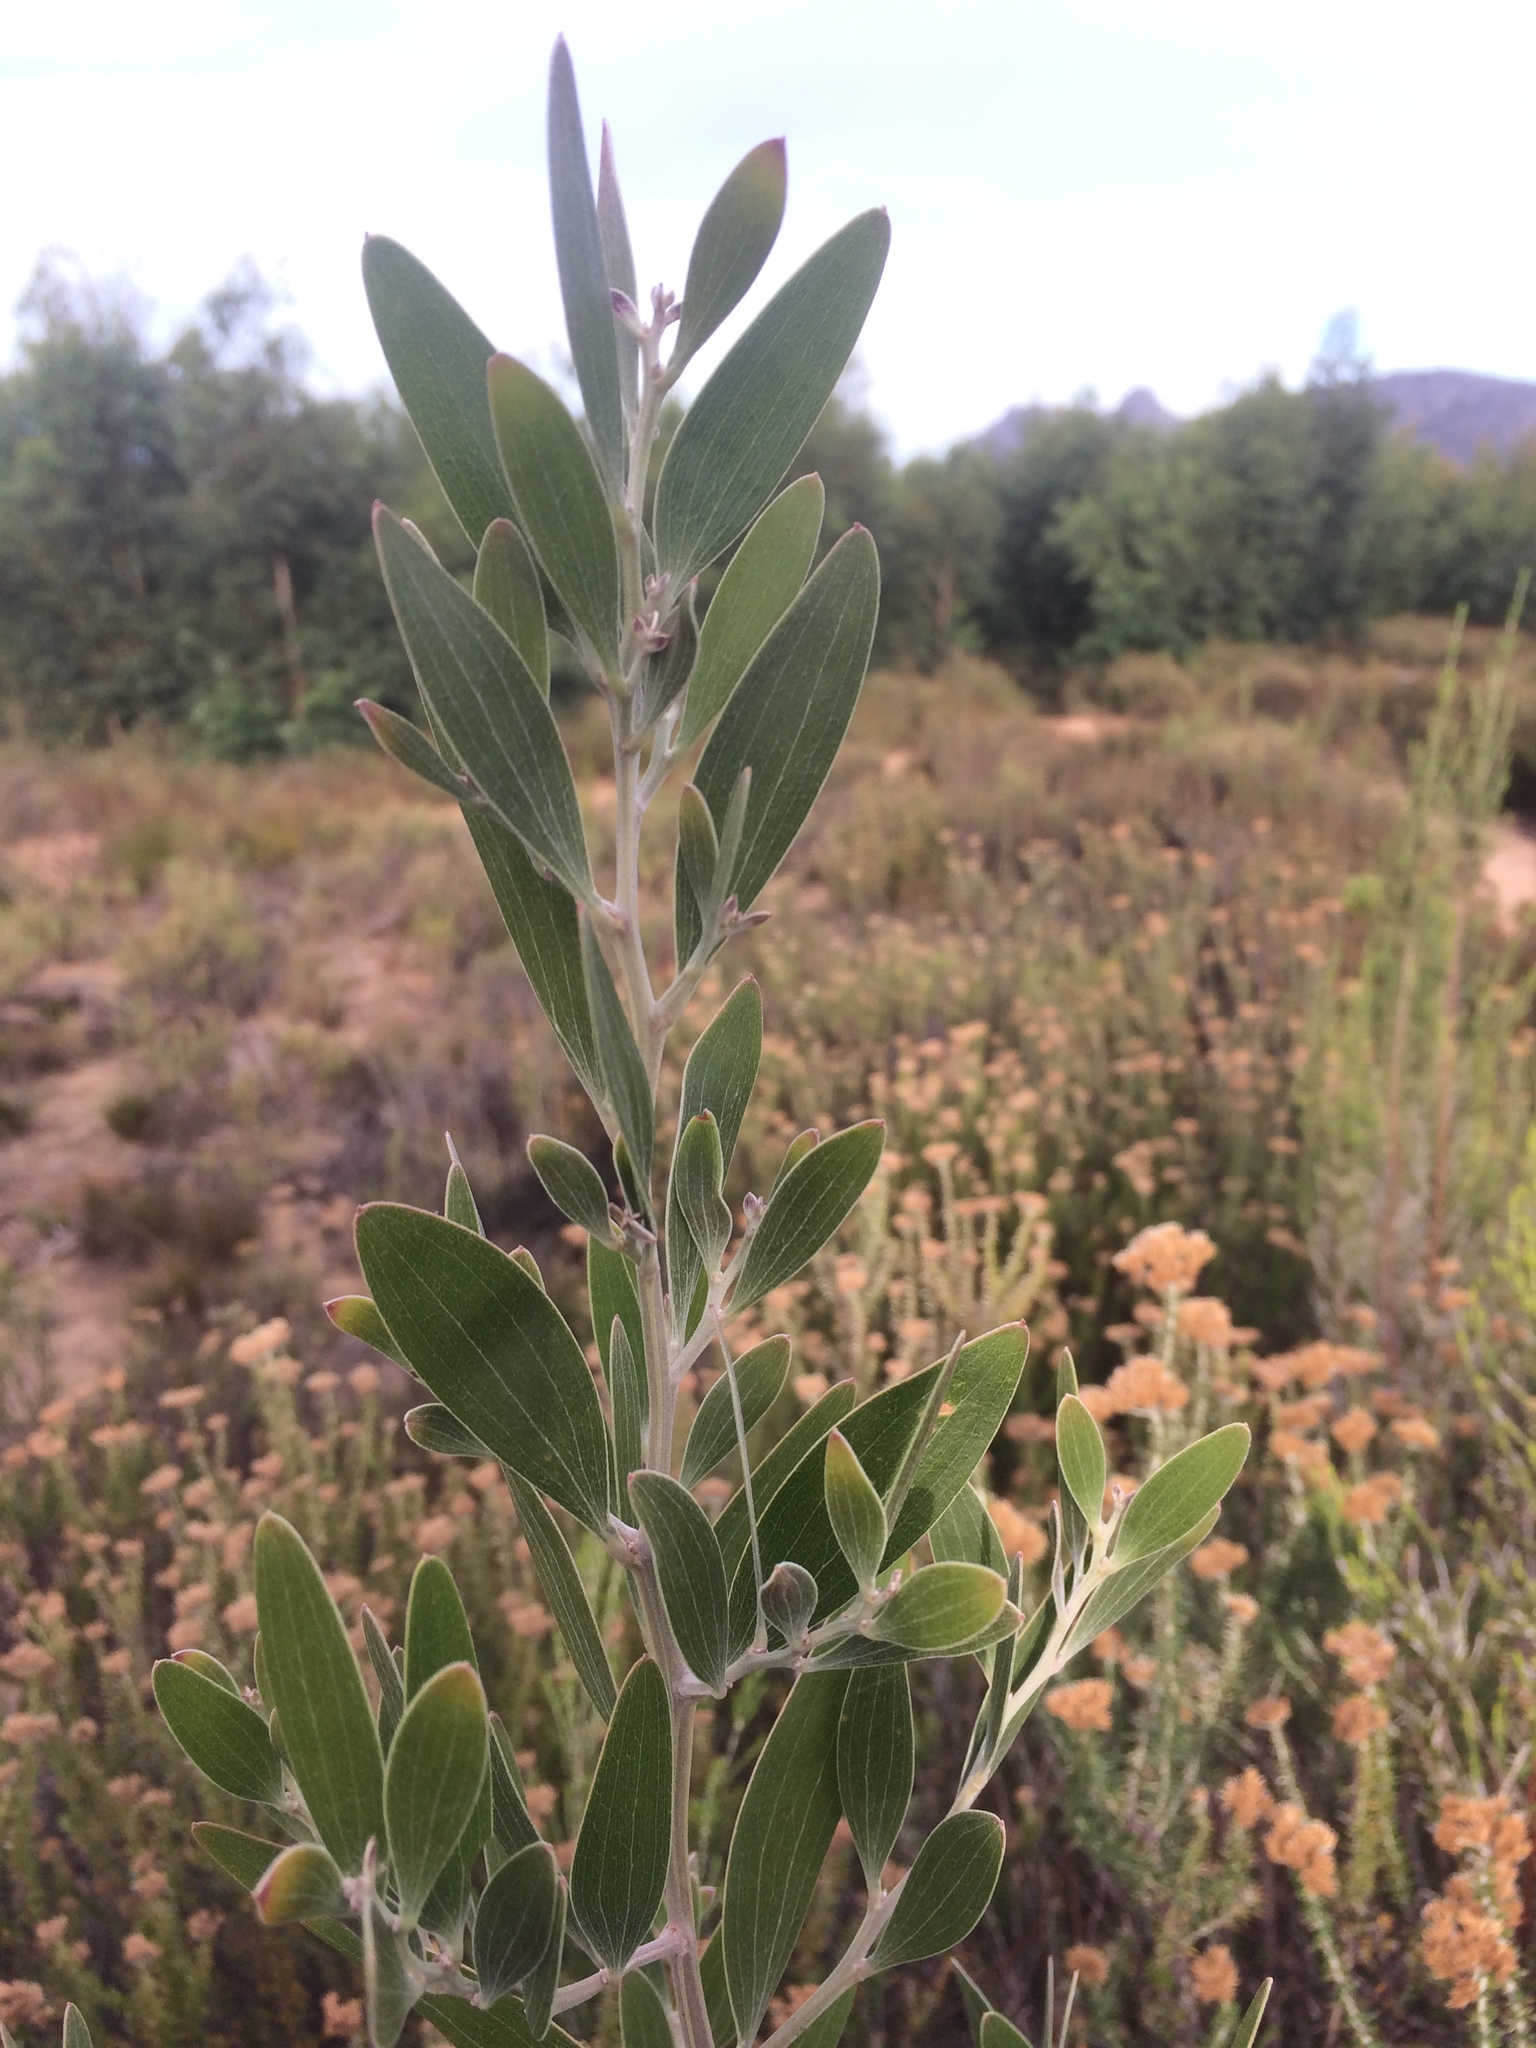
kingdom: Plantae
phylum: Tracheophyta
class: Magnoliopsida
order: Fabales
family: Fabaceae
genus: Acacia
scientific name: Acacia melanoxylon
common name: Blackwood
